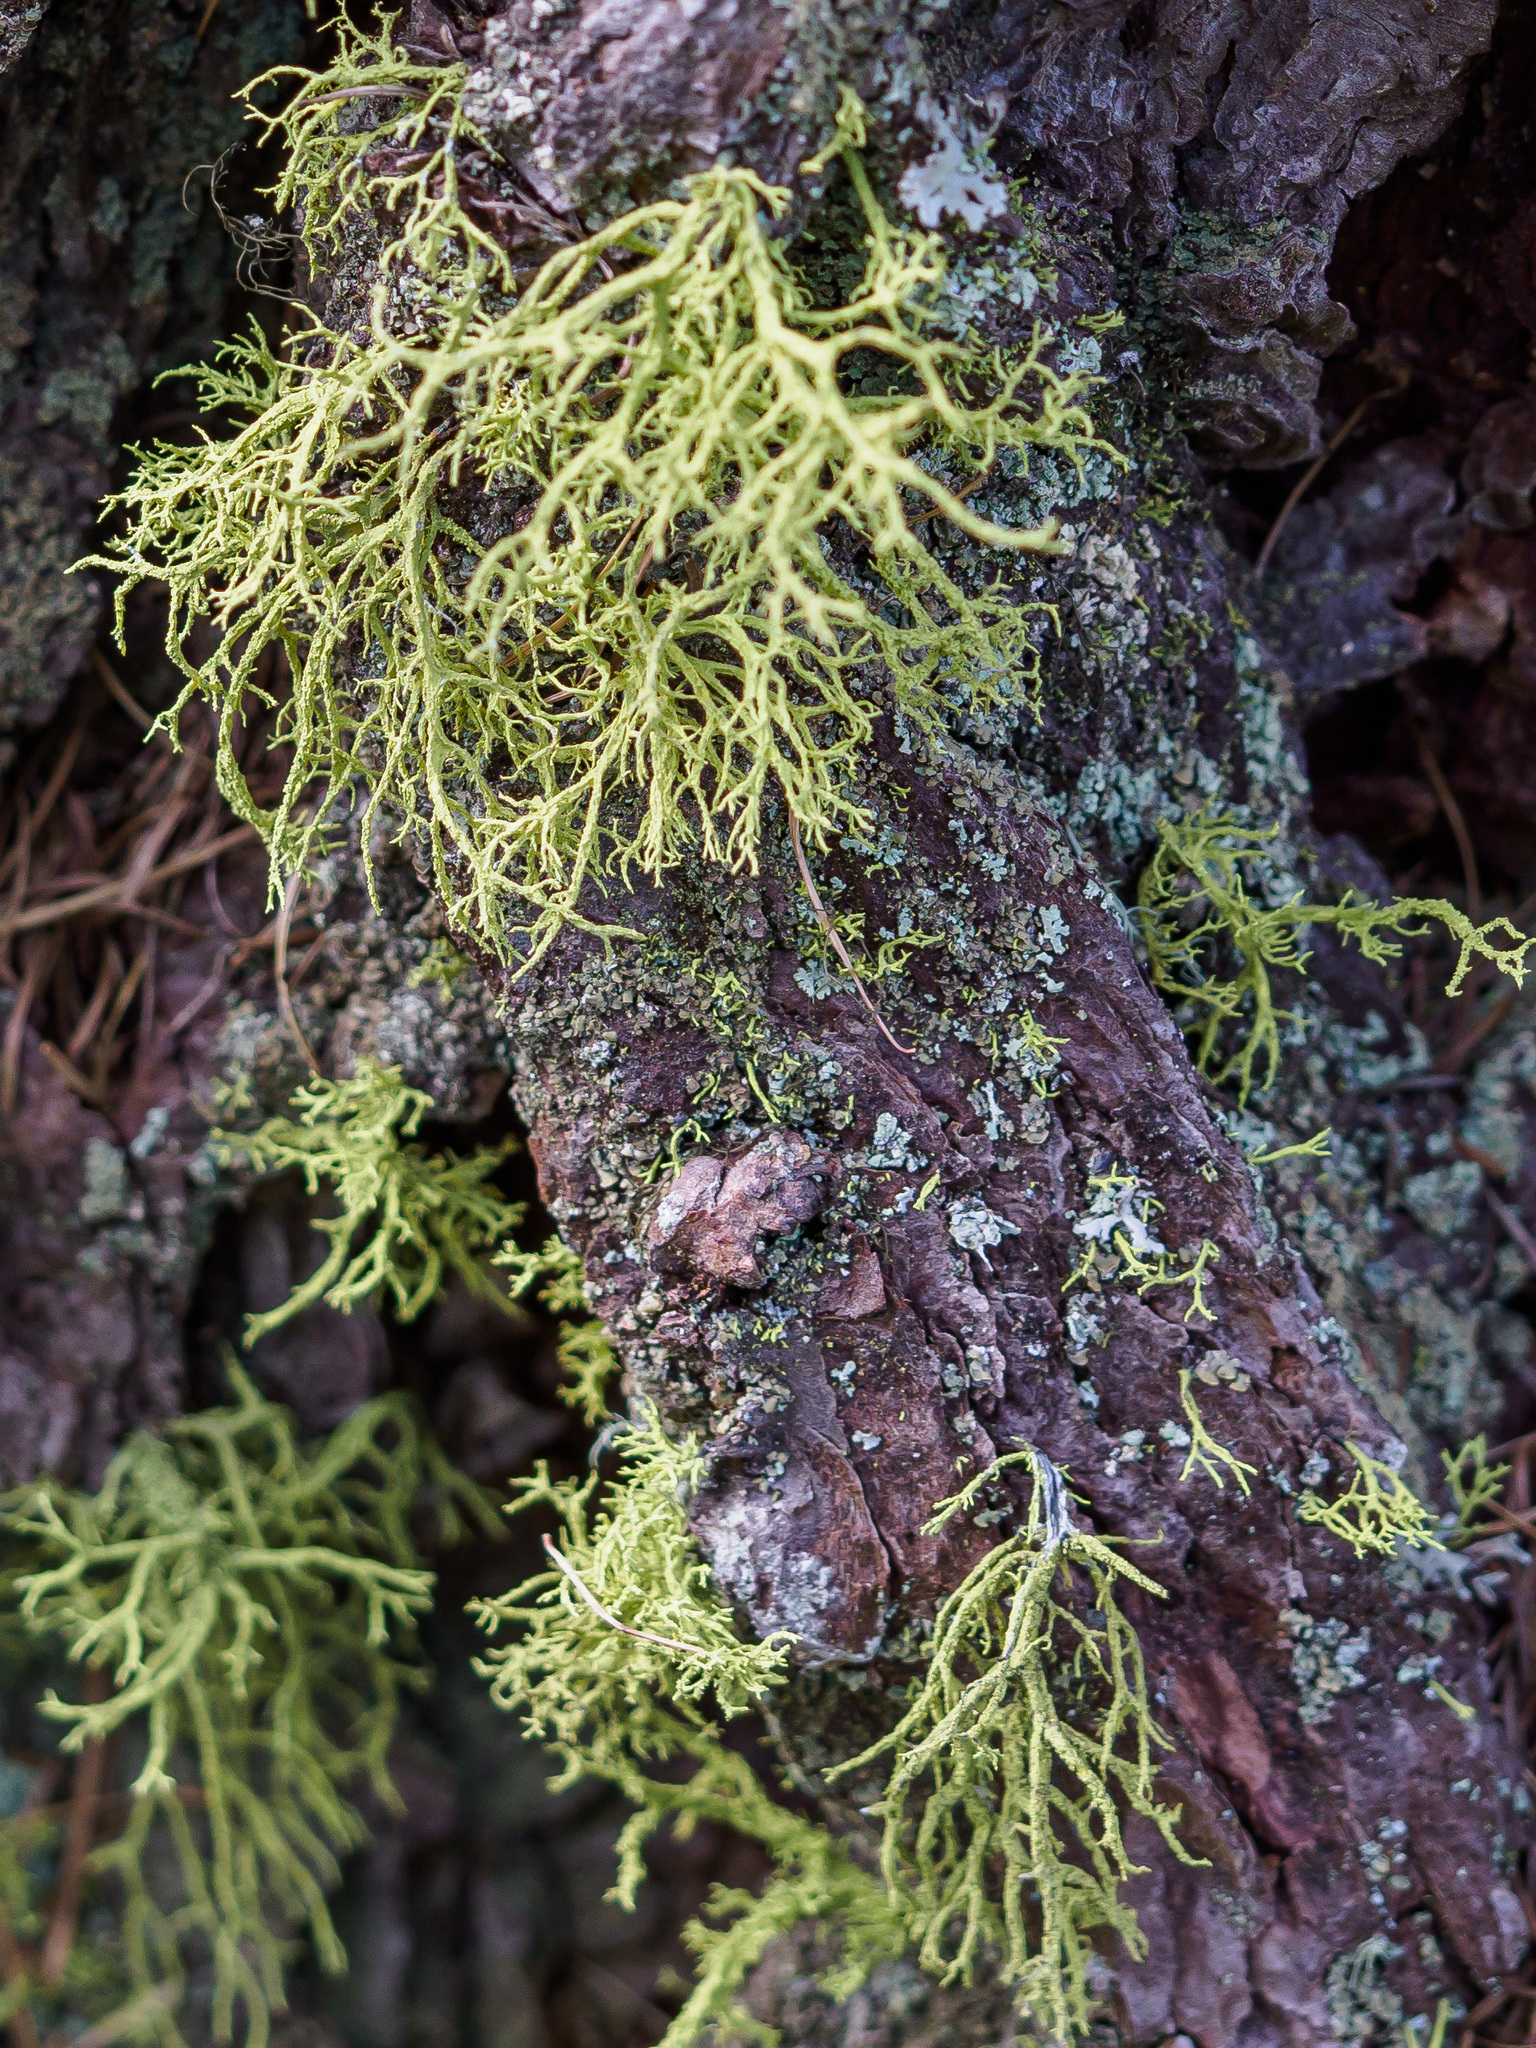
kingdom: Fungi
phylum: Ascomycota
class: Lecanoromycetes
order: Lecanorales
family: Parmeliaceae
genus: Letharia
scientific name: Letharia vulpina
